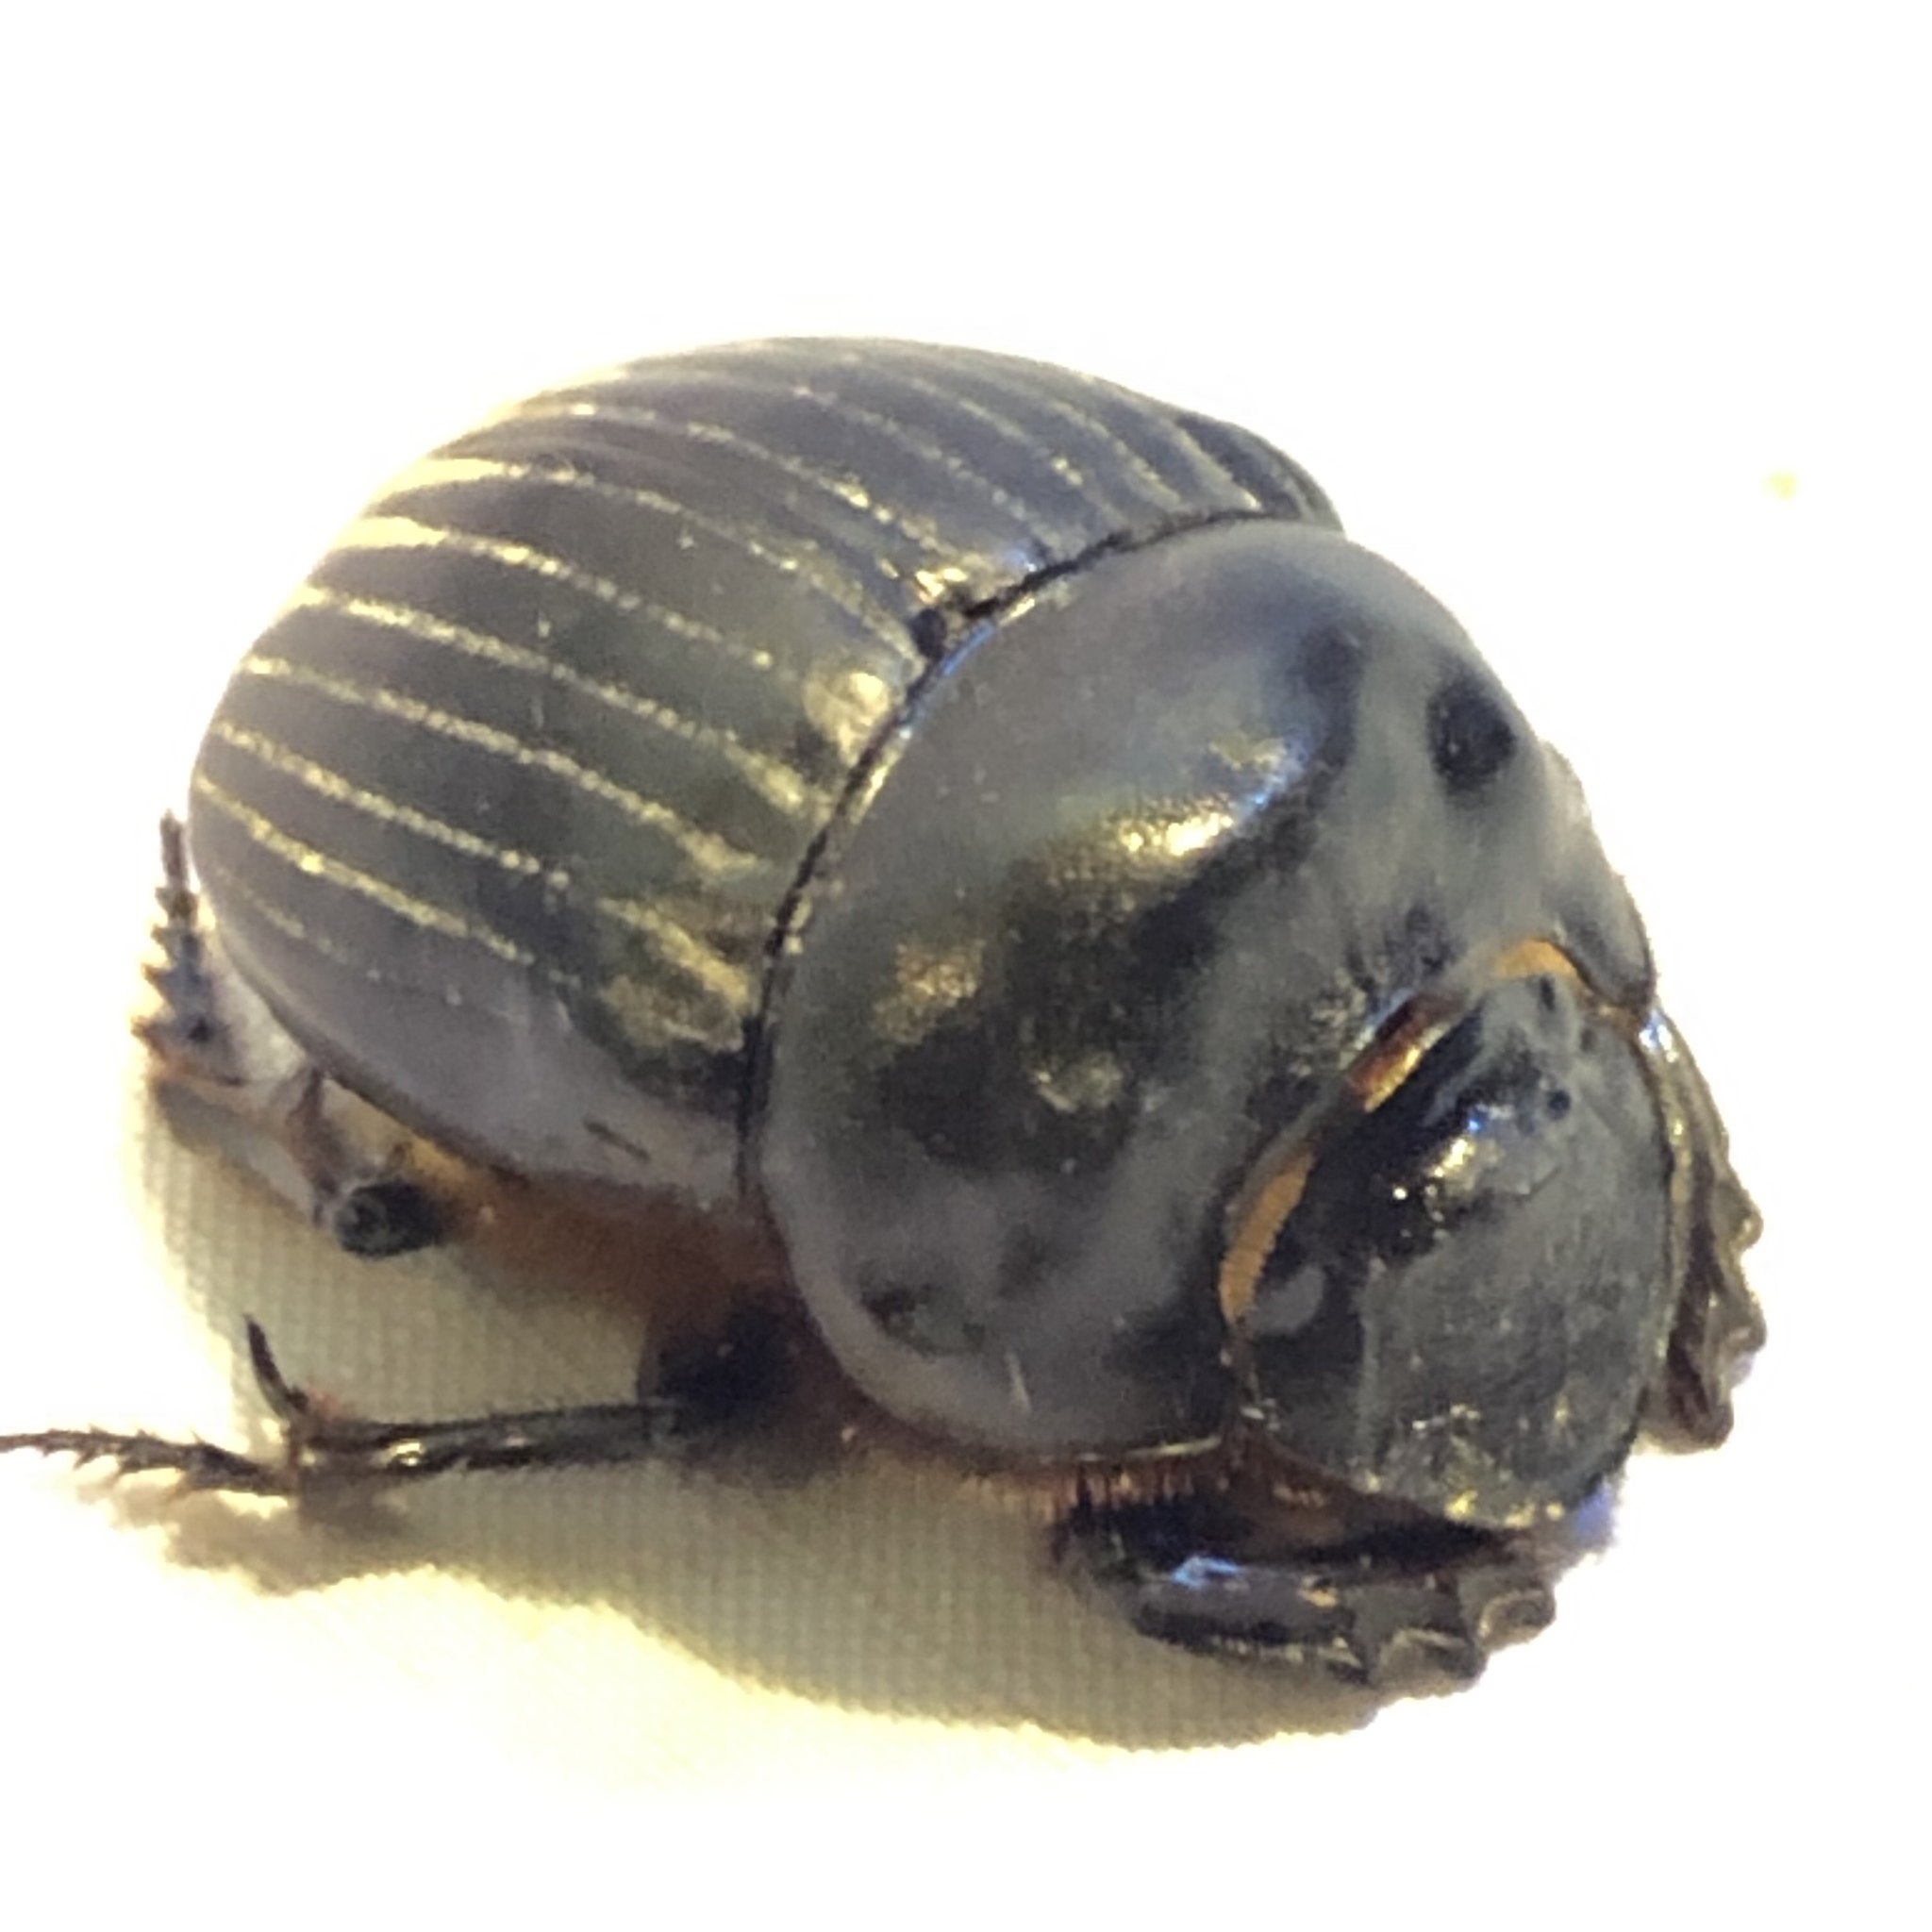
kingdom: Animalia
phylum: Arthropoda
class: Insecta
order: Coleoptera
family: Scarabaeidae
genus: Dichotomius
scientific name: Dichotomius carolinus
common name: Carolina copris
